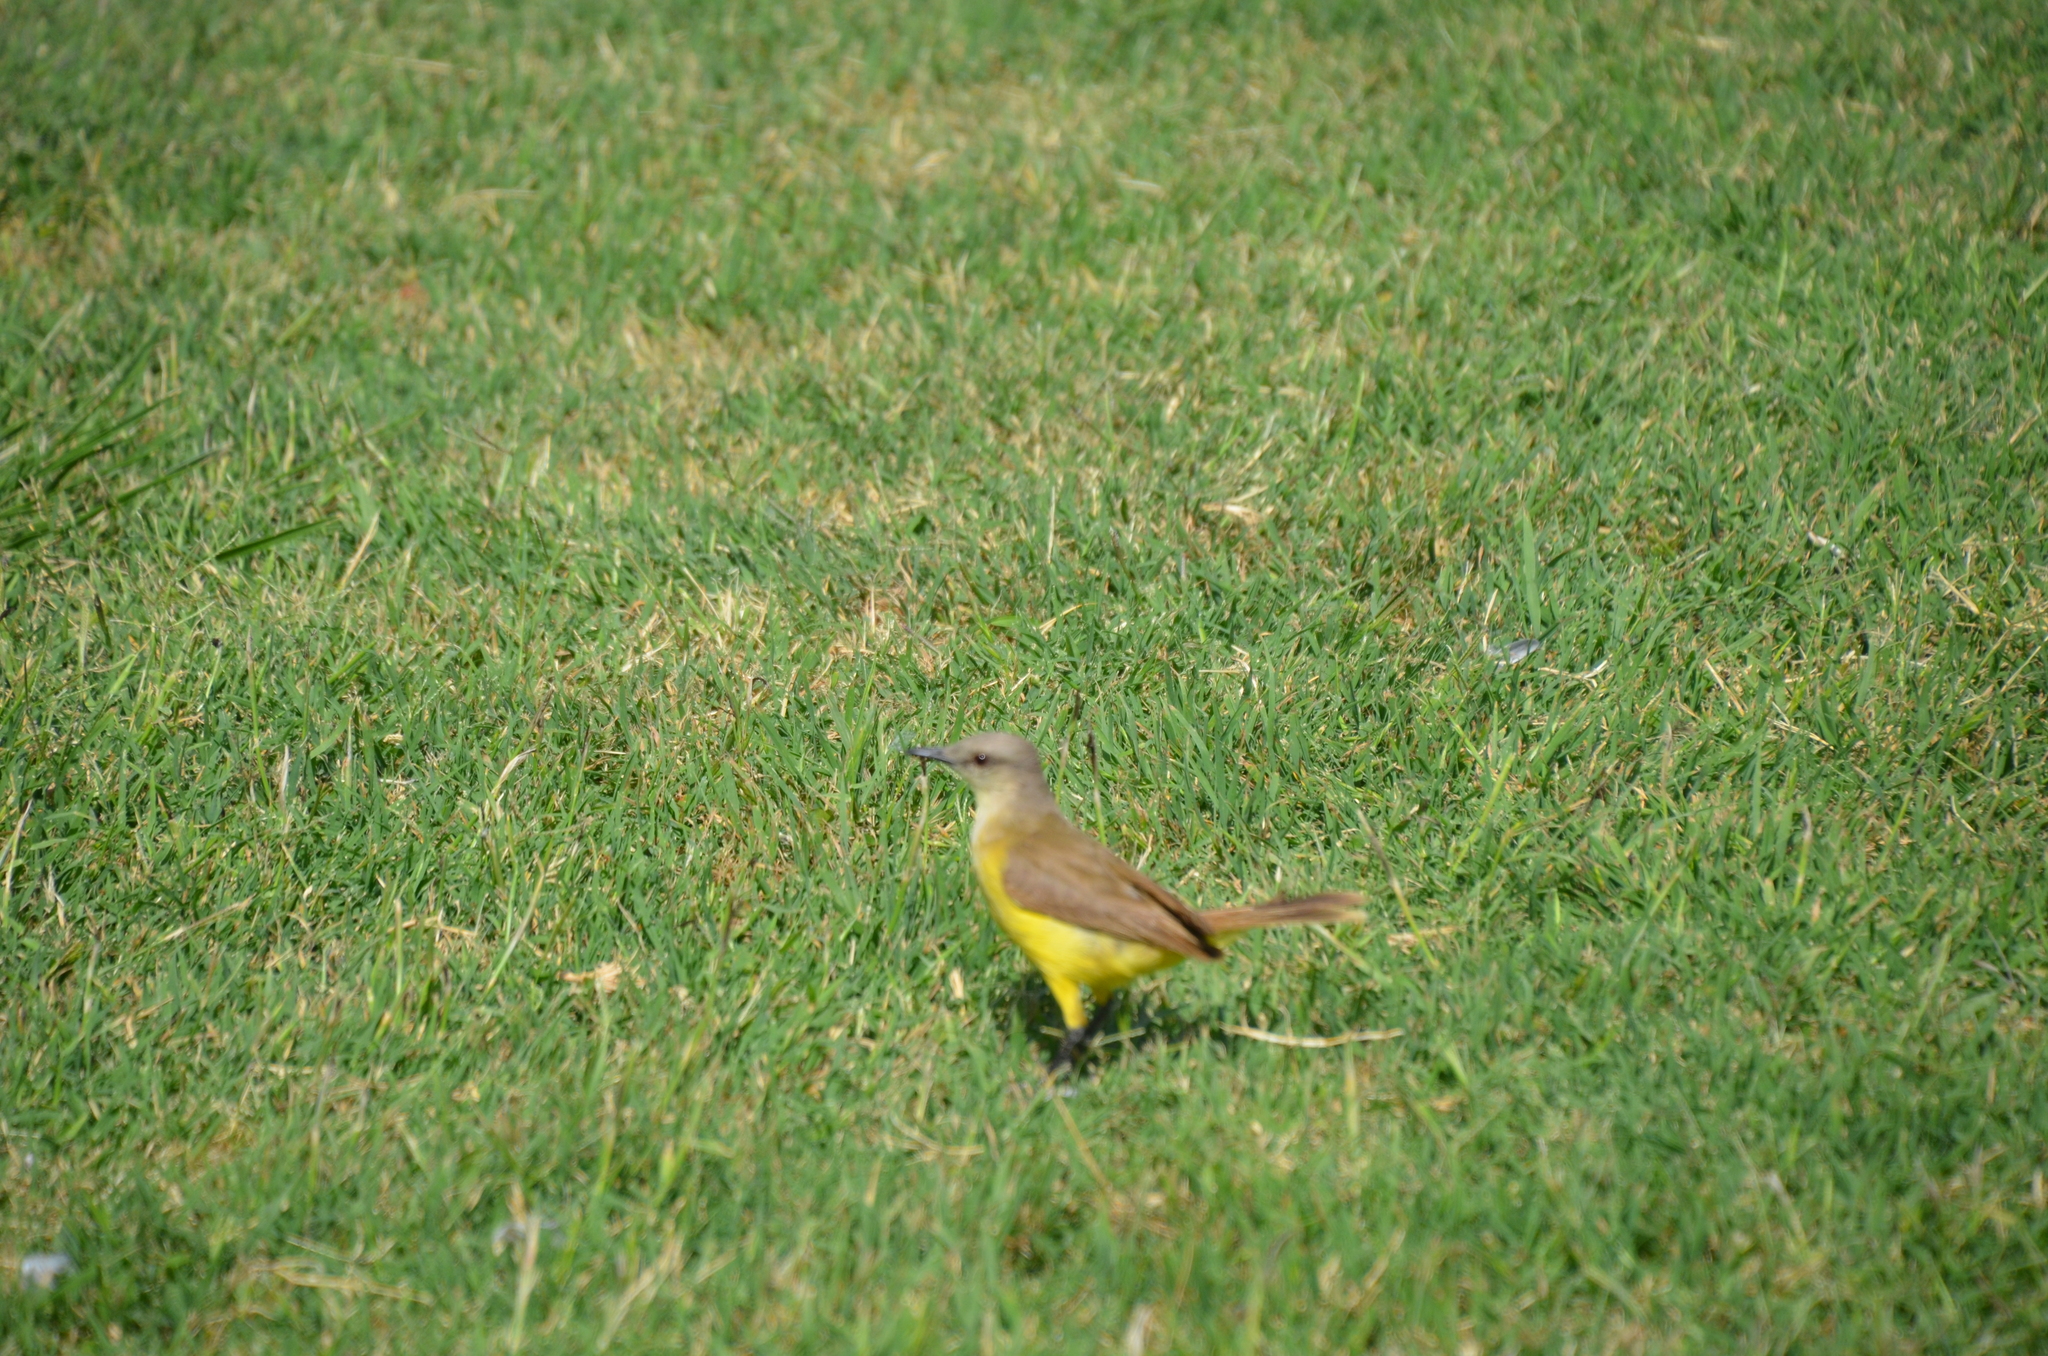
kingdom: Animalia
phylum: Chordata
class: Aves
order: Passeriformes
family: Tyrannidae
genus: Machetornis
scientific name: Machetornis rixosa
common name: Cattle tyrant
